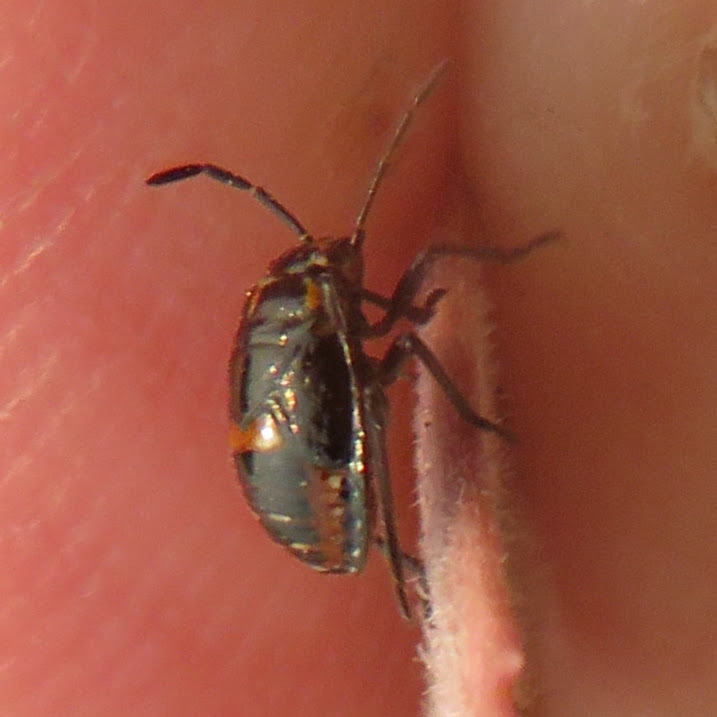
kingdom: Animalia
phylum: Arthropoda
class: Insecta
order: Hemiptera
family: Pentatomidae
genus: Bagrada
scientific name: Bagrada hilaris
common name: Bagrada bug
